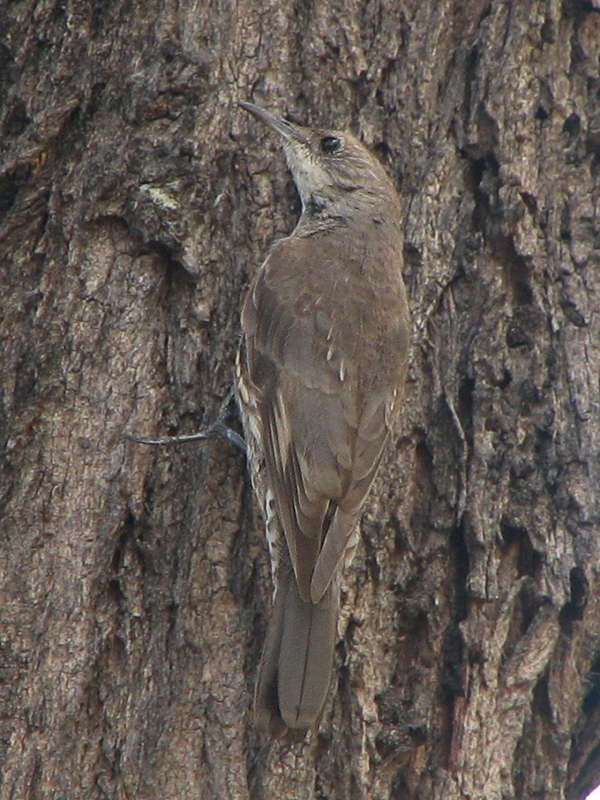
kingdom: Animalia
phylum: Chordata
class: Aves
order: Passeriformes
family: Climacteridae
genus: Cormobates
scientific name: Cormobates leucophaea
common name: White-throated treecreeper
